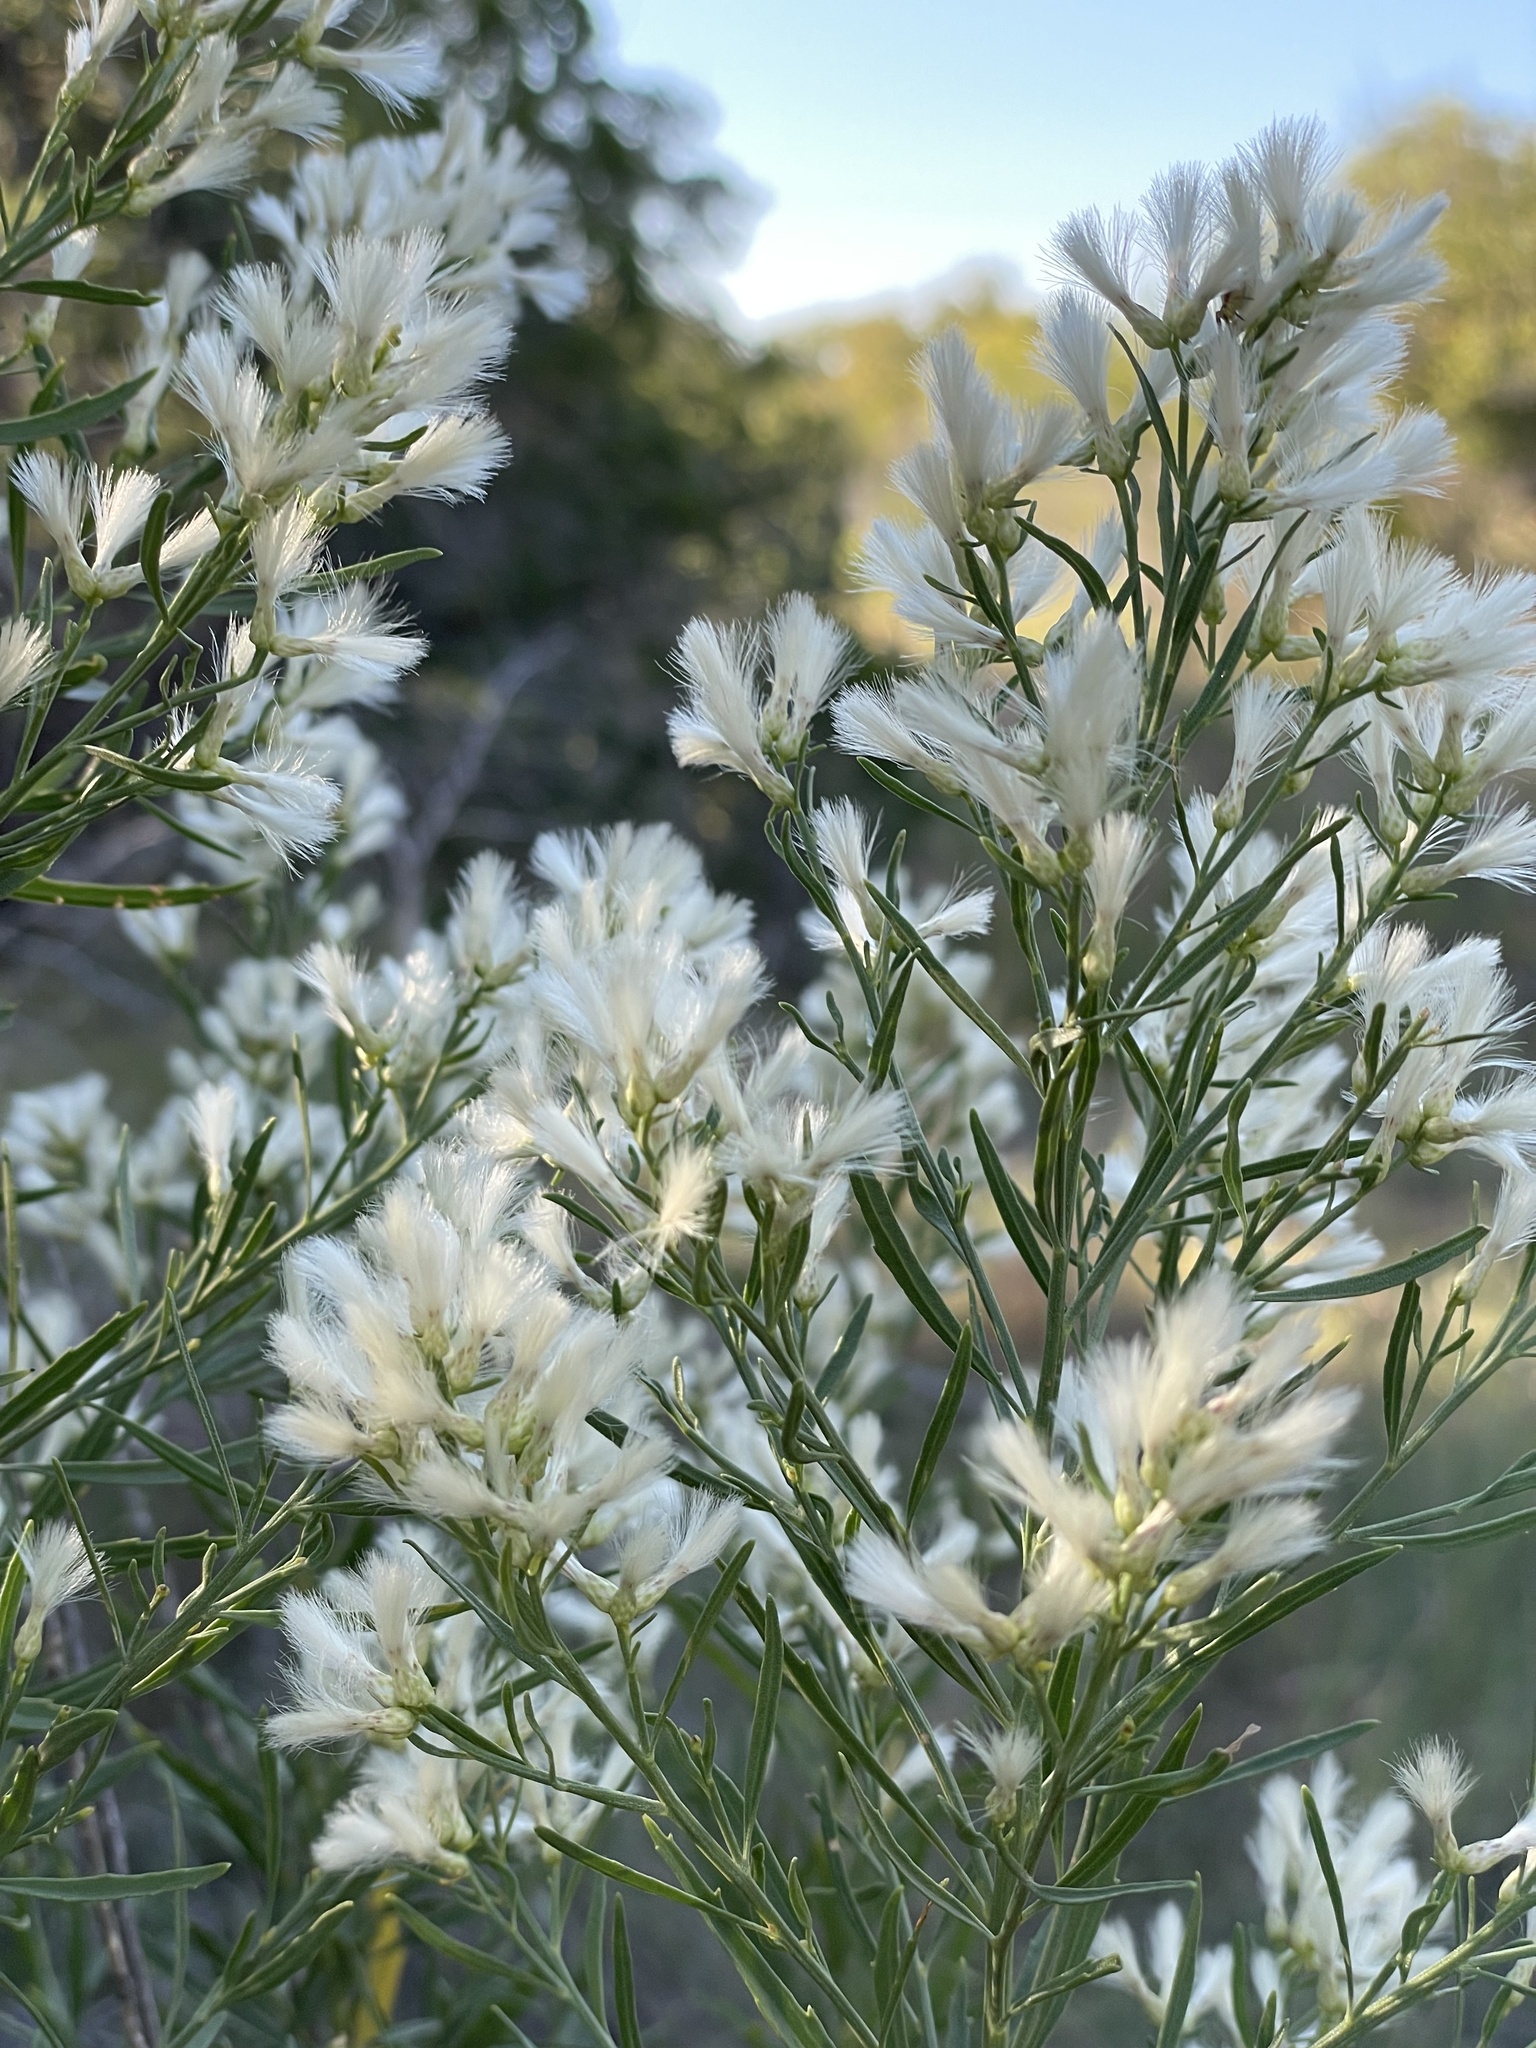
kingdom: Plantae
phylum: Tracheophyta
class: Magnoliopsida
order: Asterales
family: Asteraceae
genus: Baccharis
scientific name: Baccharis neglecta
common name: Roosevelt-weed
